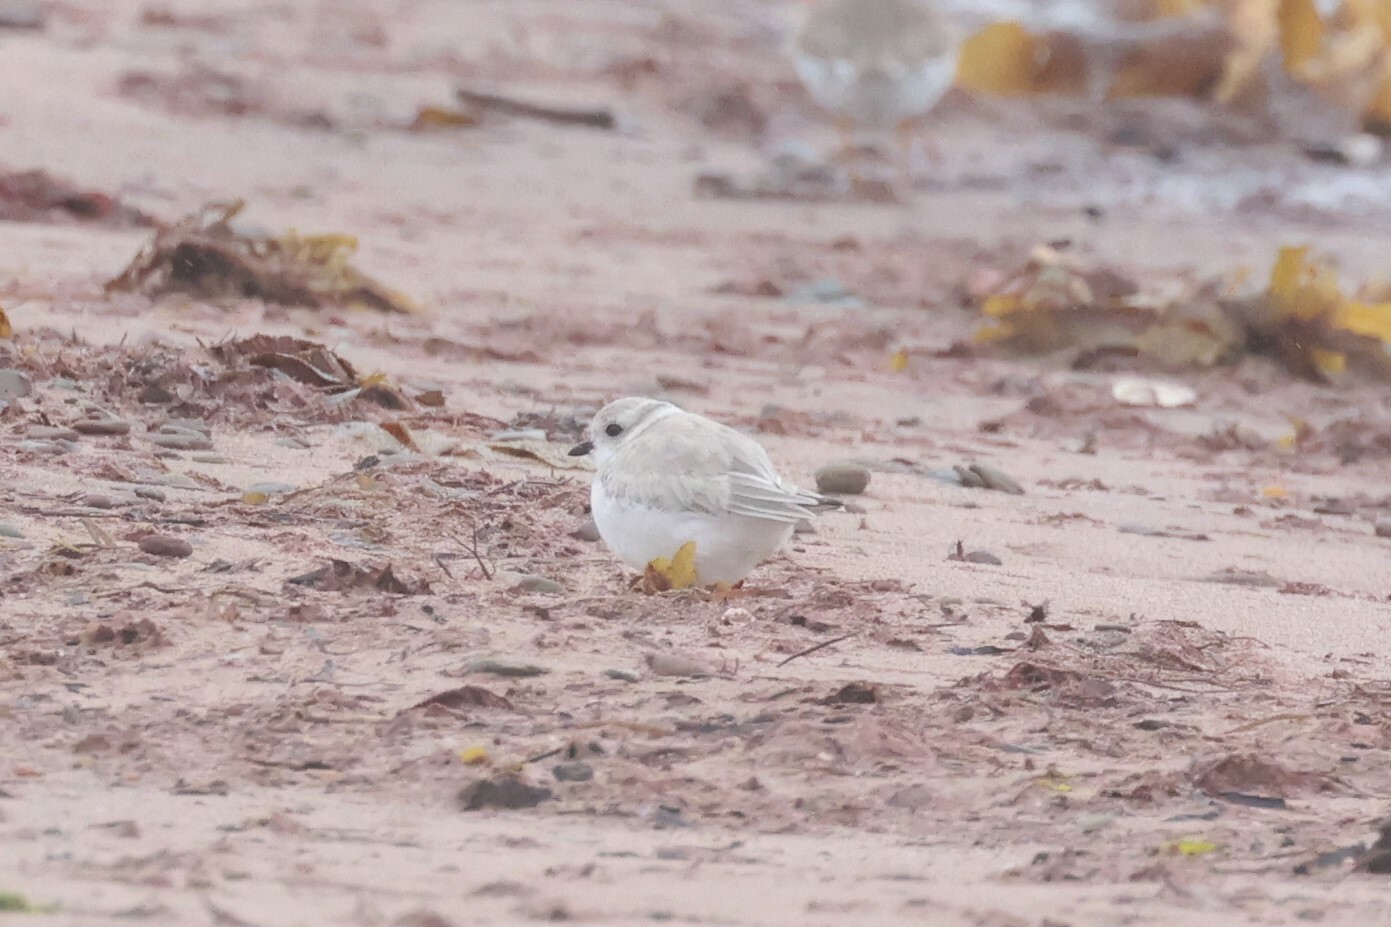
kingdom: Animalia
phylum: Chordata
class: Aves
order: Charadriiformes
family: Charadriidae
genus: Charadrius
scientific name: Charadrius melodus
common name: Piping plover
